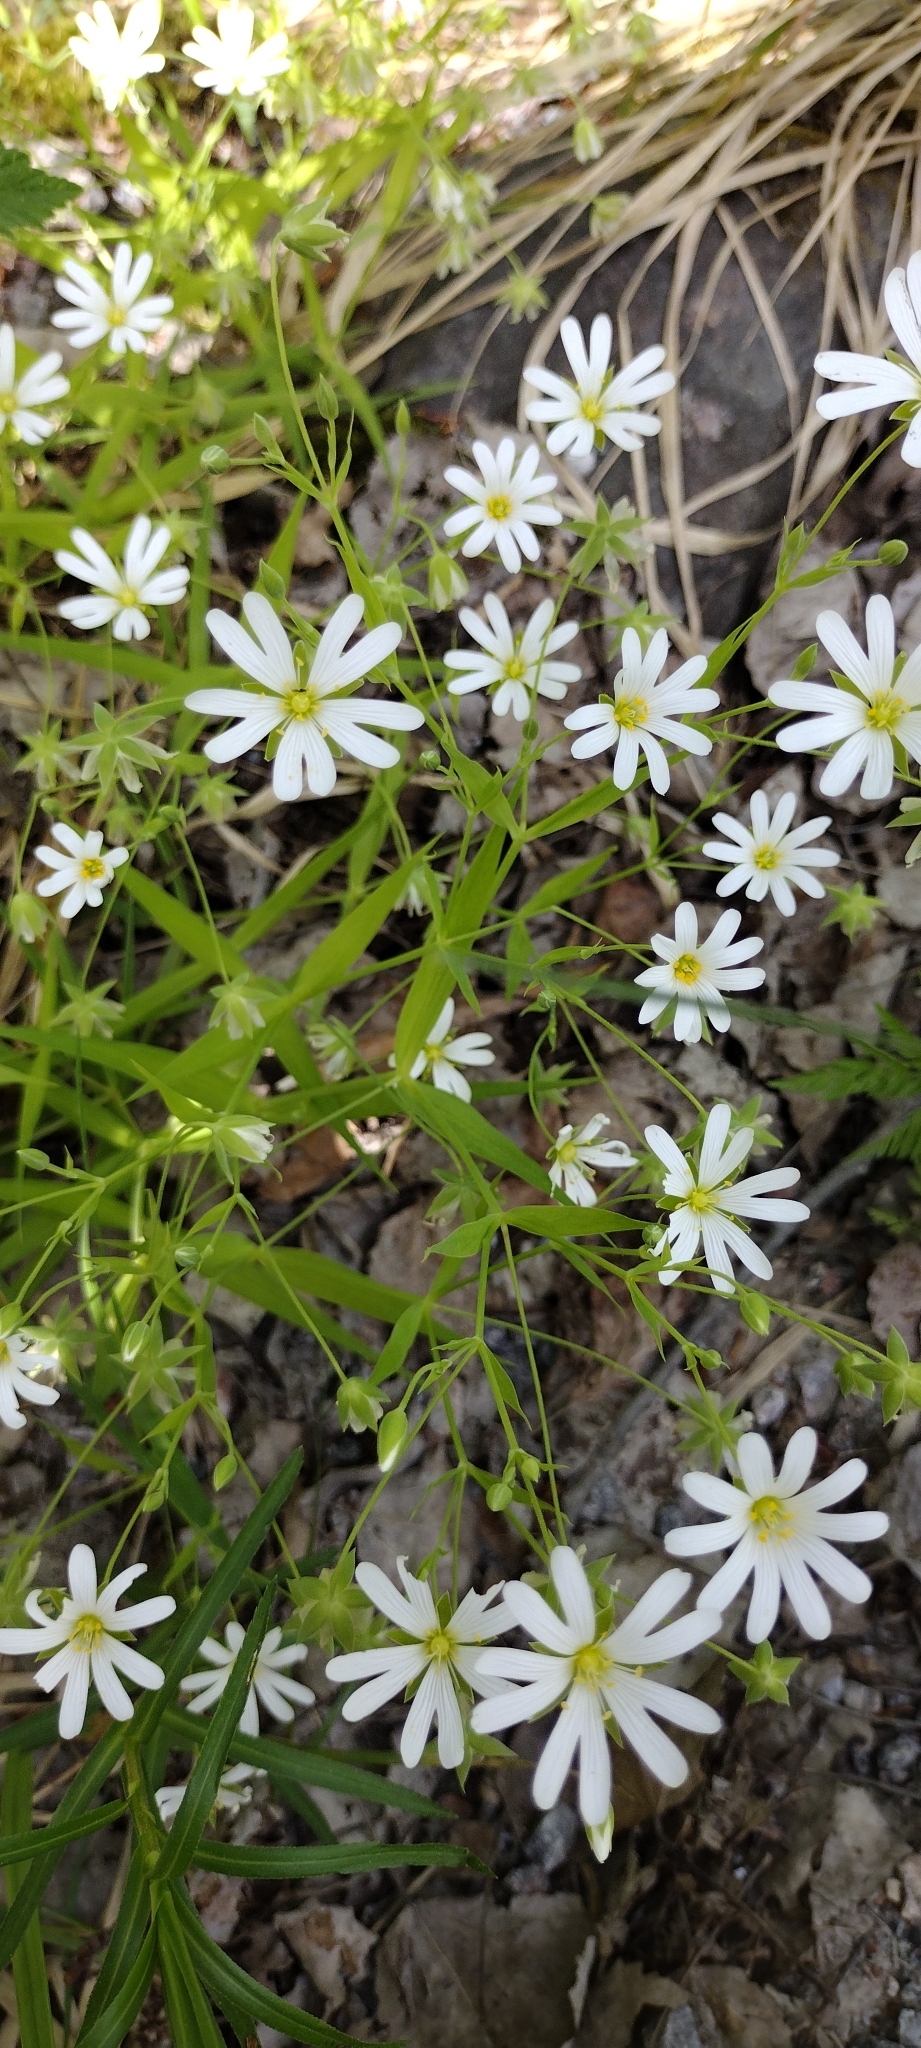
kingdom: Plantae
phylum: Tracheophyta
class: Magnoliopsida
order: Caryophyllales
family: Caryophyllaceae
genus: Rabelera
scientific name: Rabelera holostea
